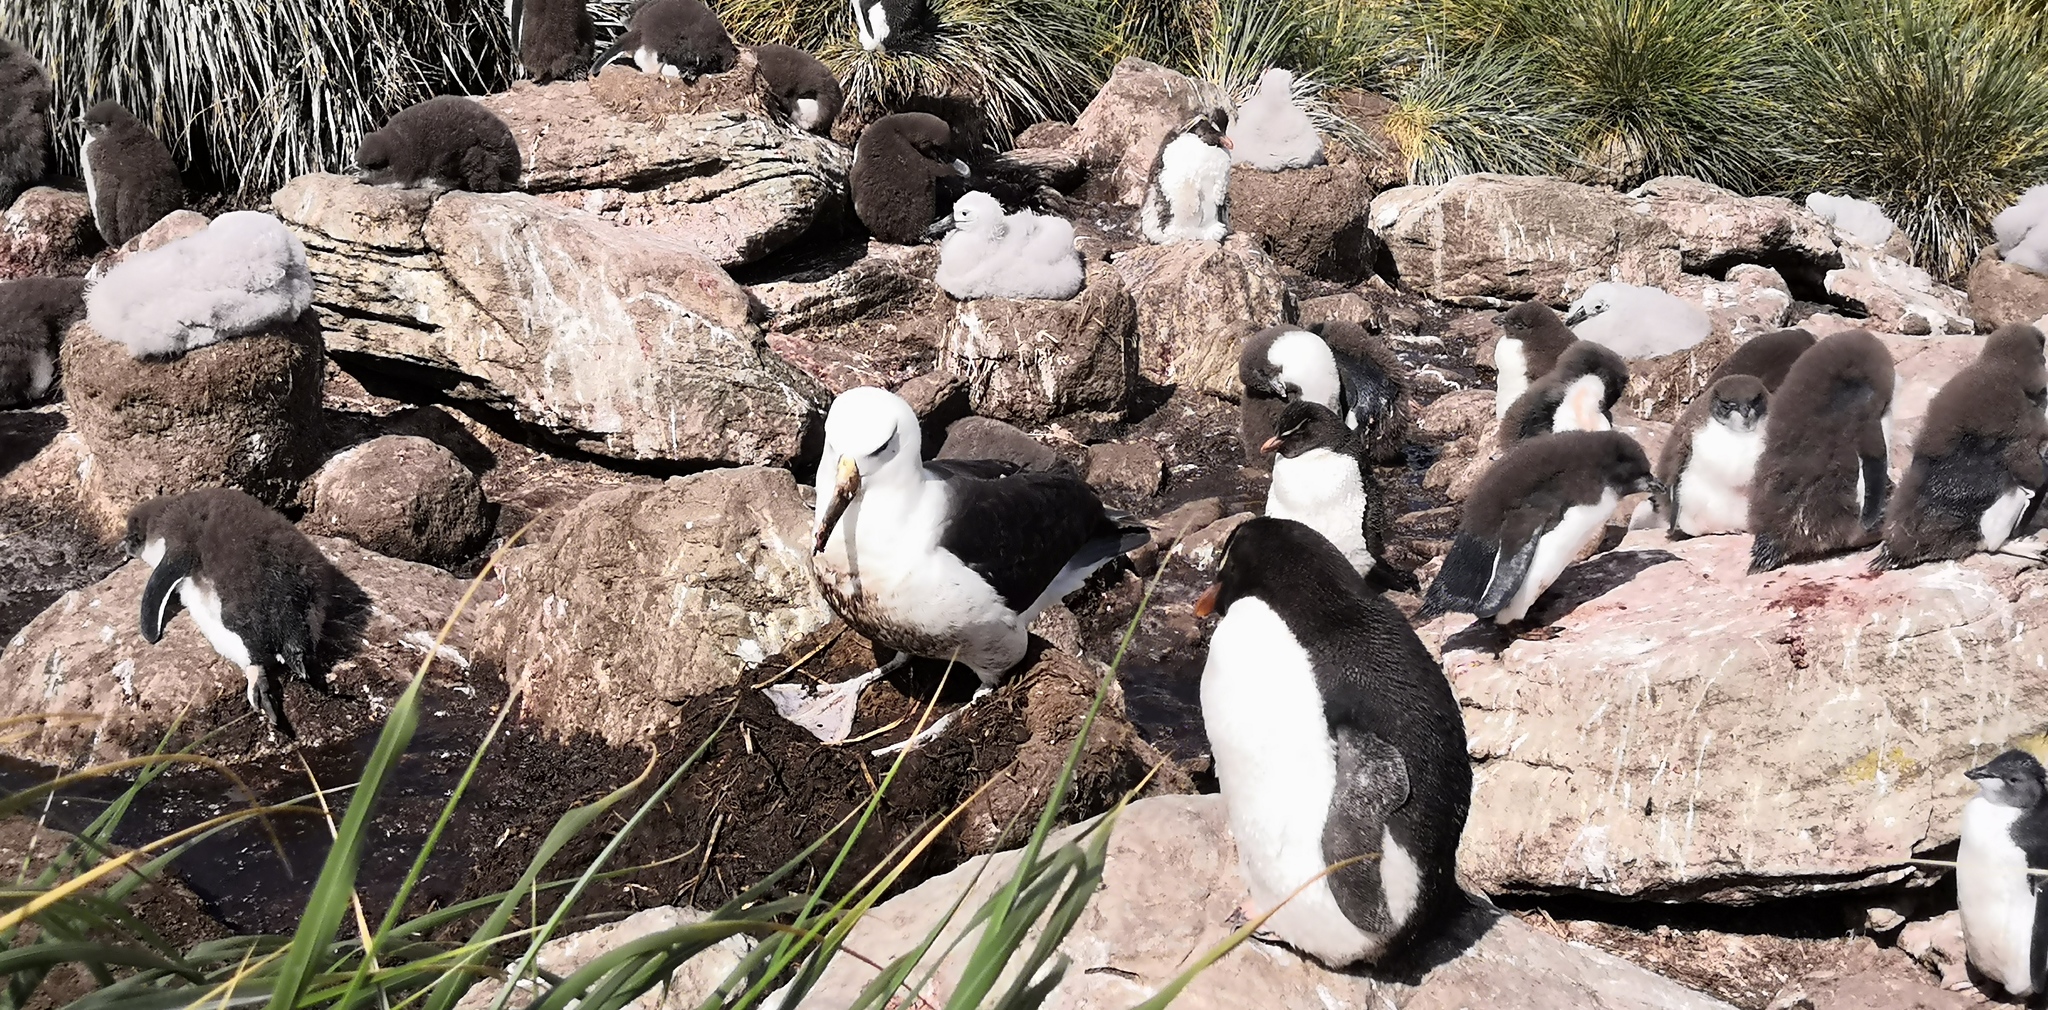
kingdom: Animalia
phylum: Chordata
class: Aves
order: Procellariiformes
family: Diomedeidae
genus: Thalassarche
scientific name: Thalassarche melanophris
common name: Black-browed albatross
